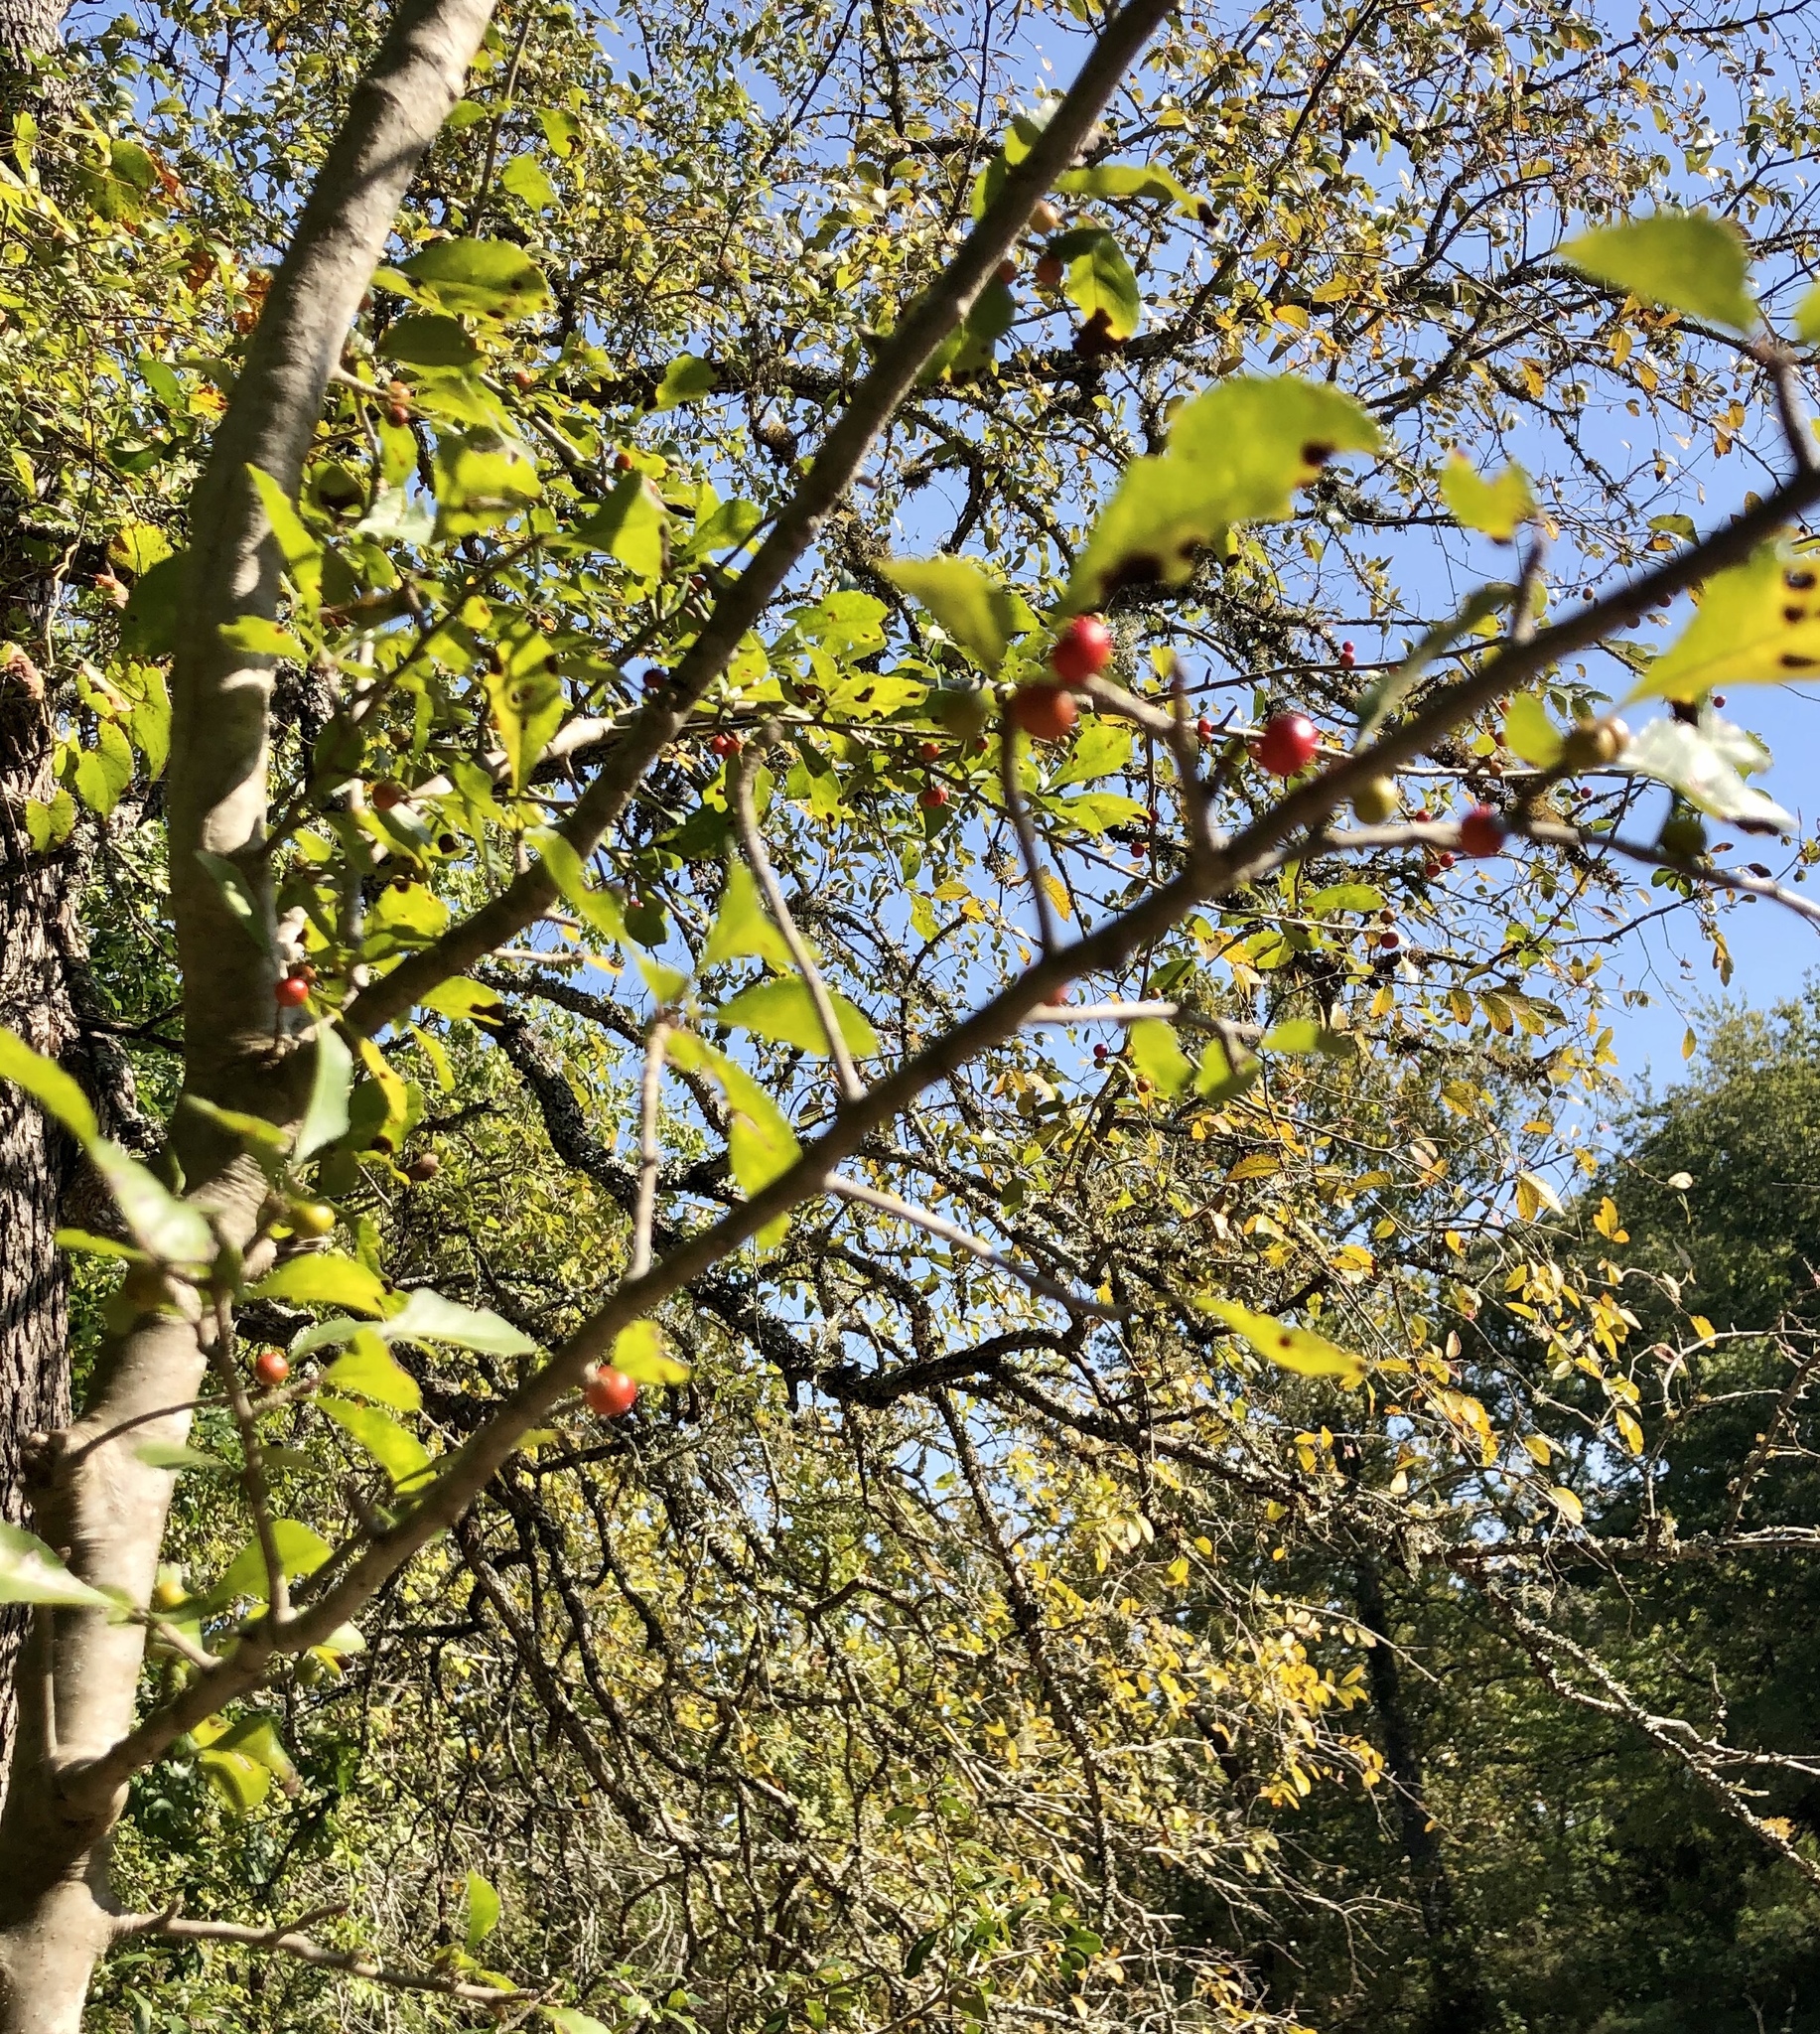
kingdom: Plantae
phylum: Tracheophyta
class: Magnoliopsida
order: Aquifoliales
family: Aquifoliaceae
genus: Ilex
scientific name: Ilex decidua
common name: Possum-haw
